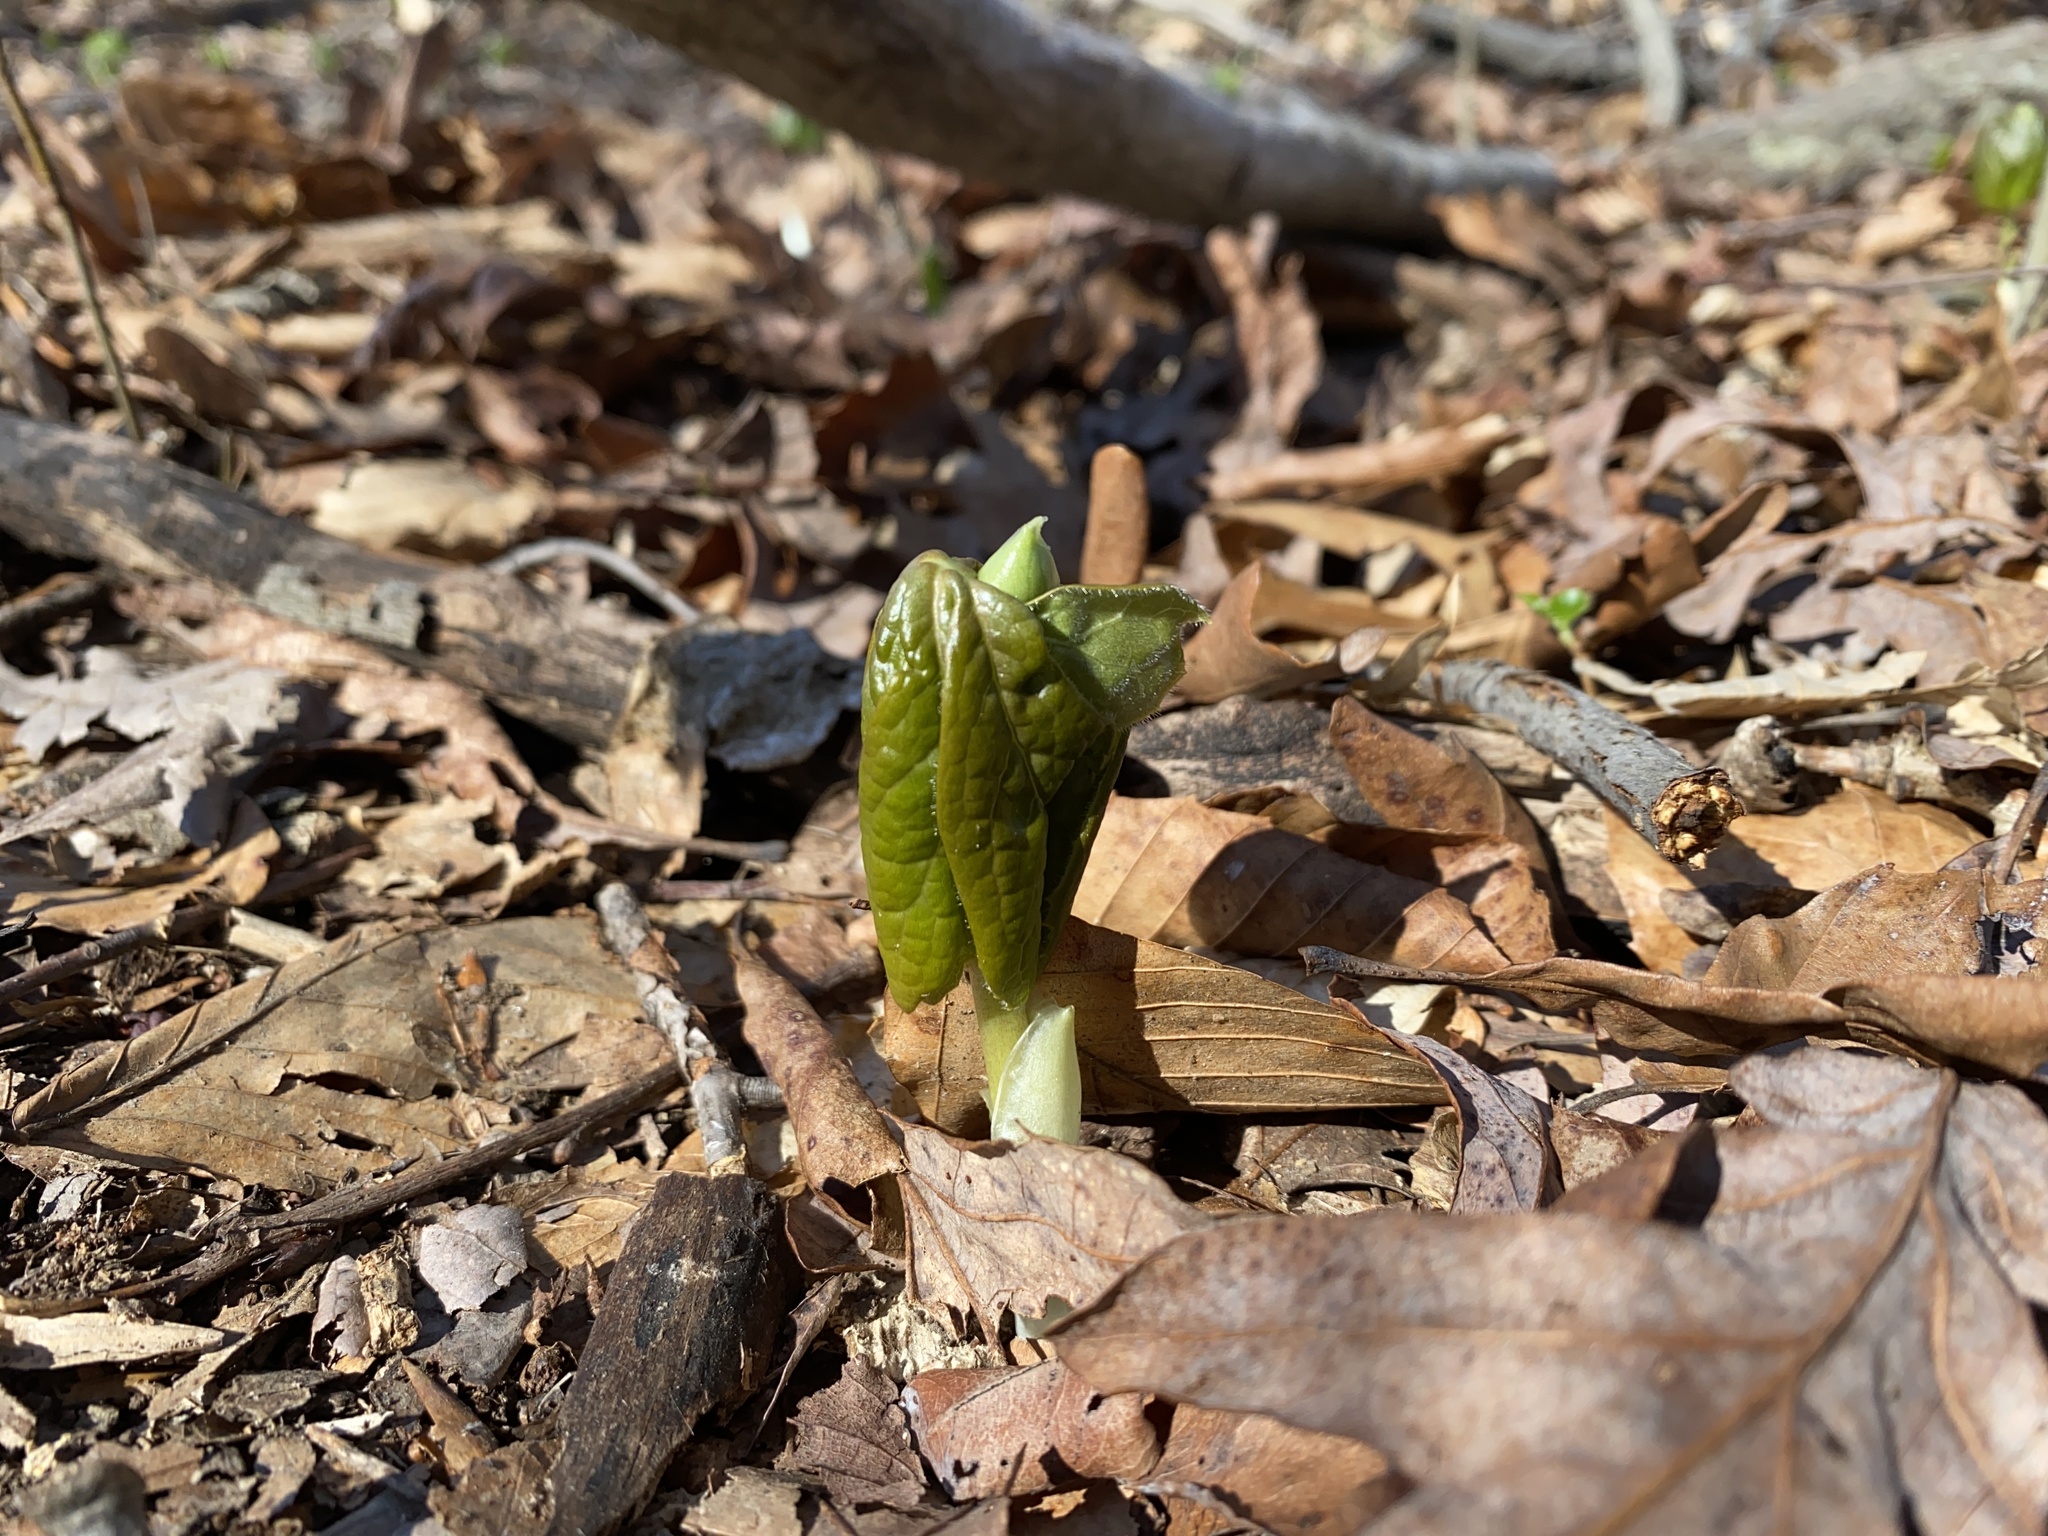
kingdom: Plantae
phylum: Tracheophyta
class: Magnoliopsida
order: Ranunculales
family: Berberidaceae
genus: Podophyllum
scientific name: Podophyllum peltatum
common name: Wild mandrake
